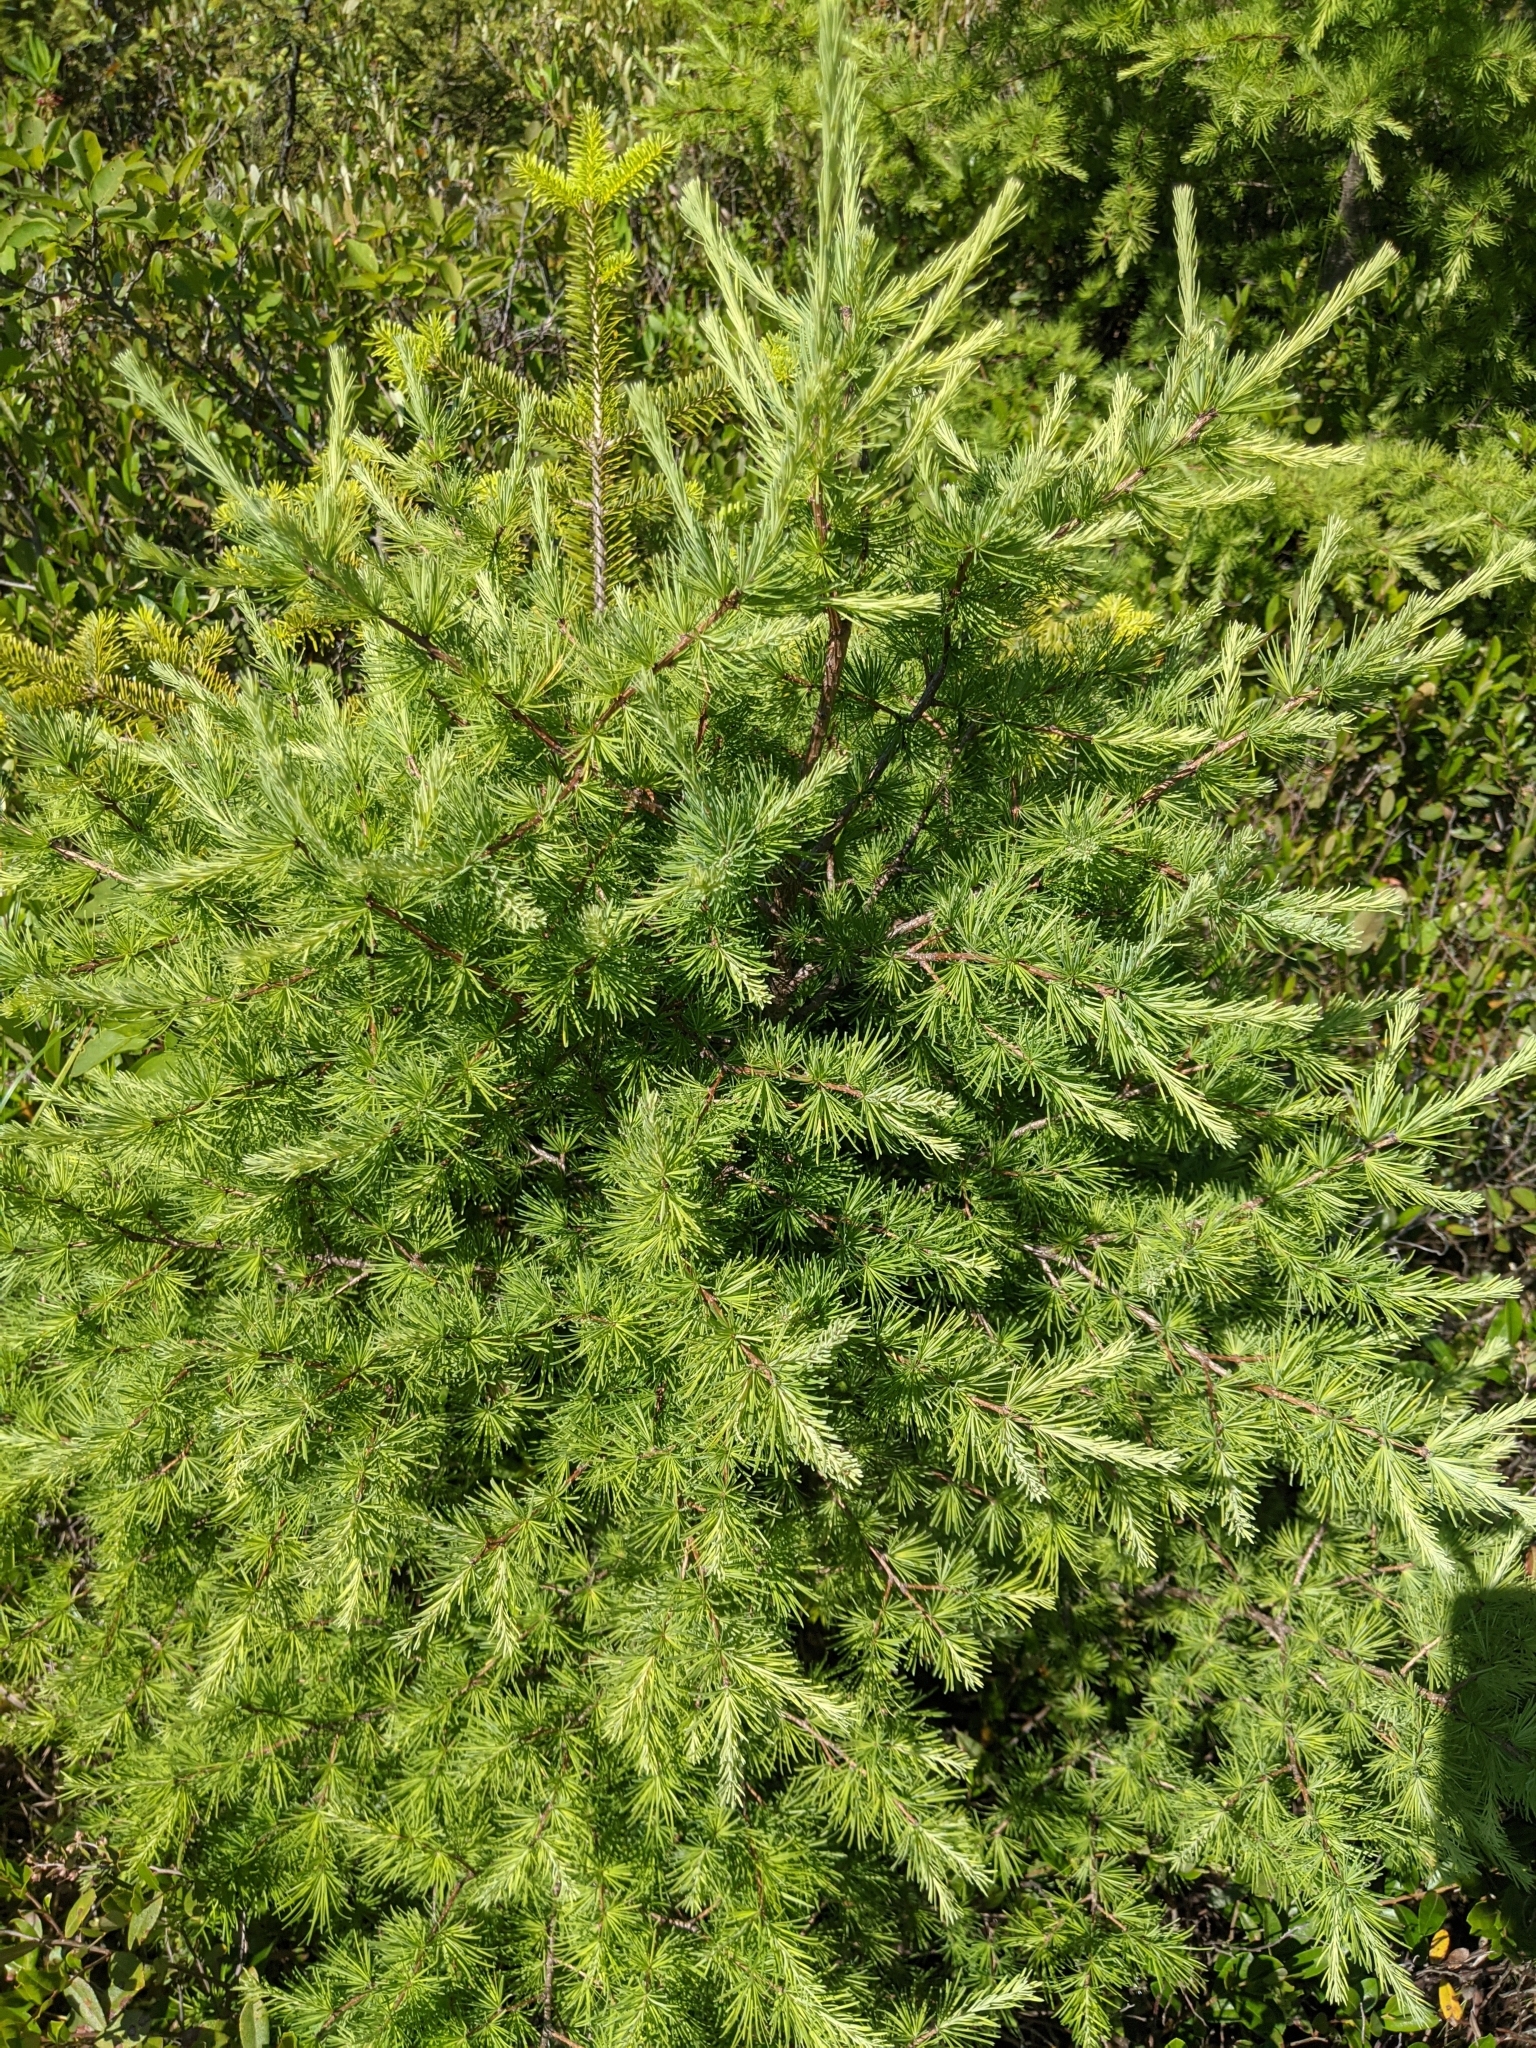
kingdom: Plantae
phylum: Tracheophyta
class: Pinopsida
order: Pinales
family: Pinaceae
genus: Larix
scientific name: Larix laricina
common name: American larch
